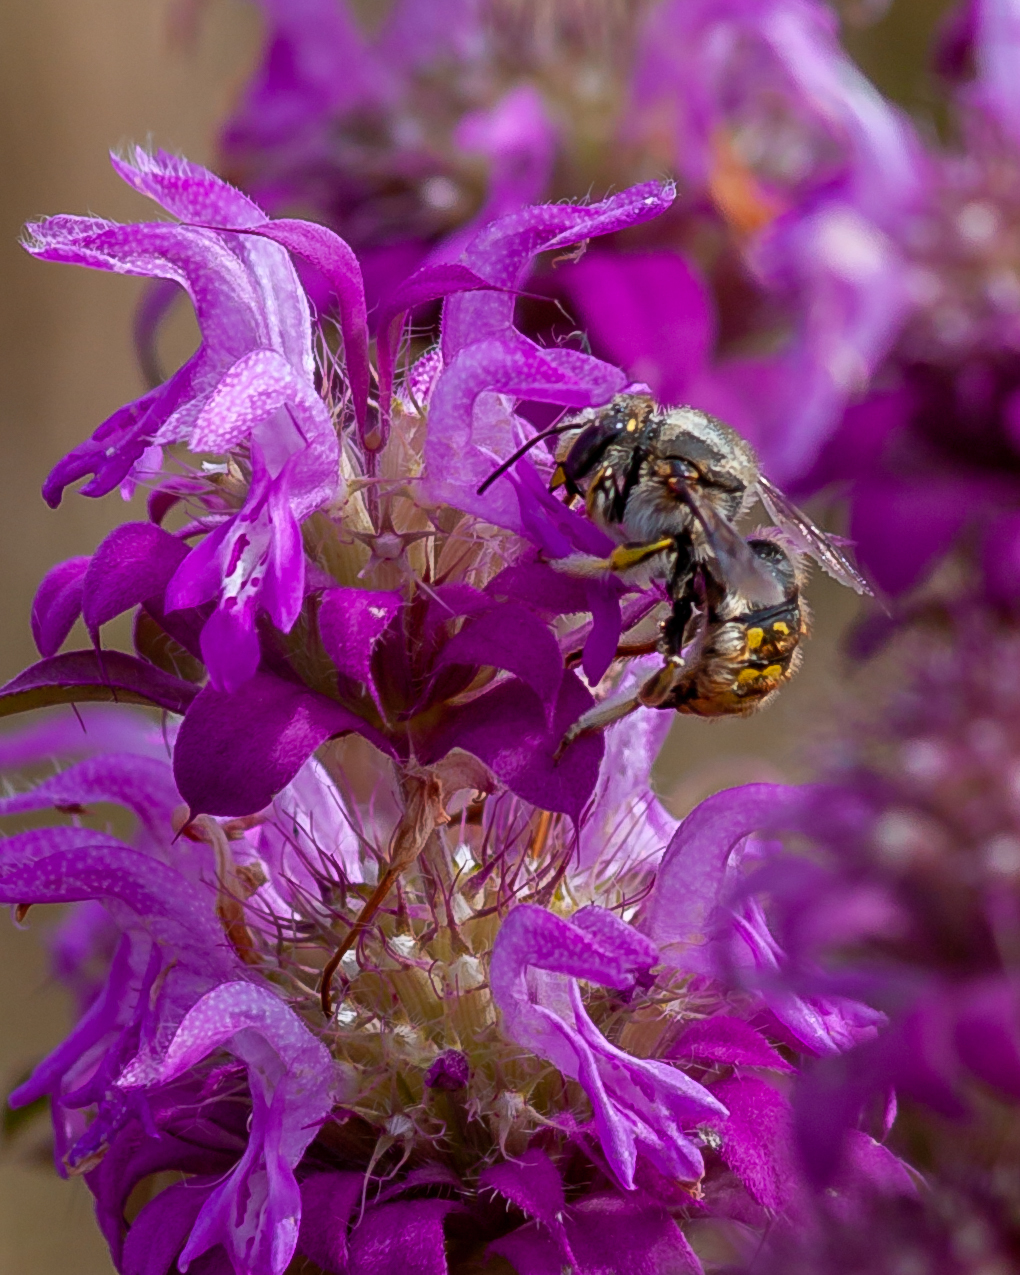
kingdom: Animalia
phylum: Arthropoda
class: Insecta
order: Hymenoptera
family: Megachilidae
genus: Anthidium
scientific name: Anthidium manicatum
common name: Wool carder bee
